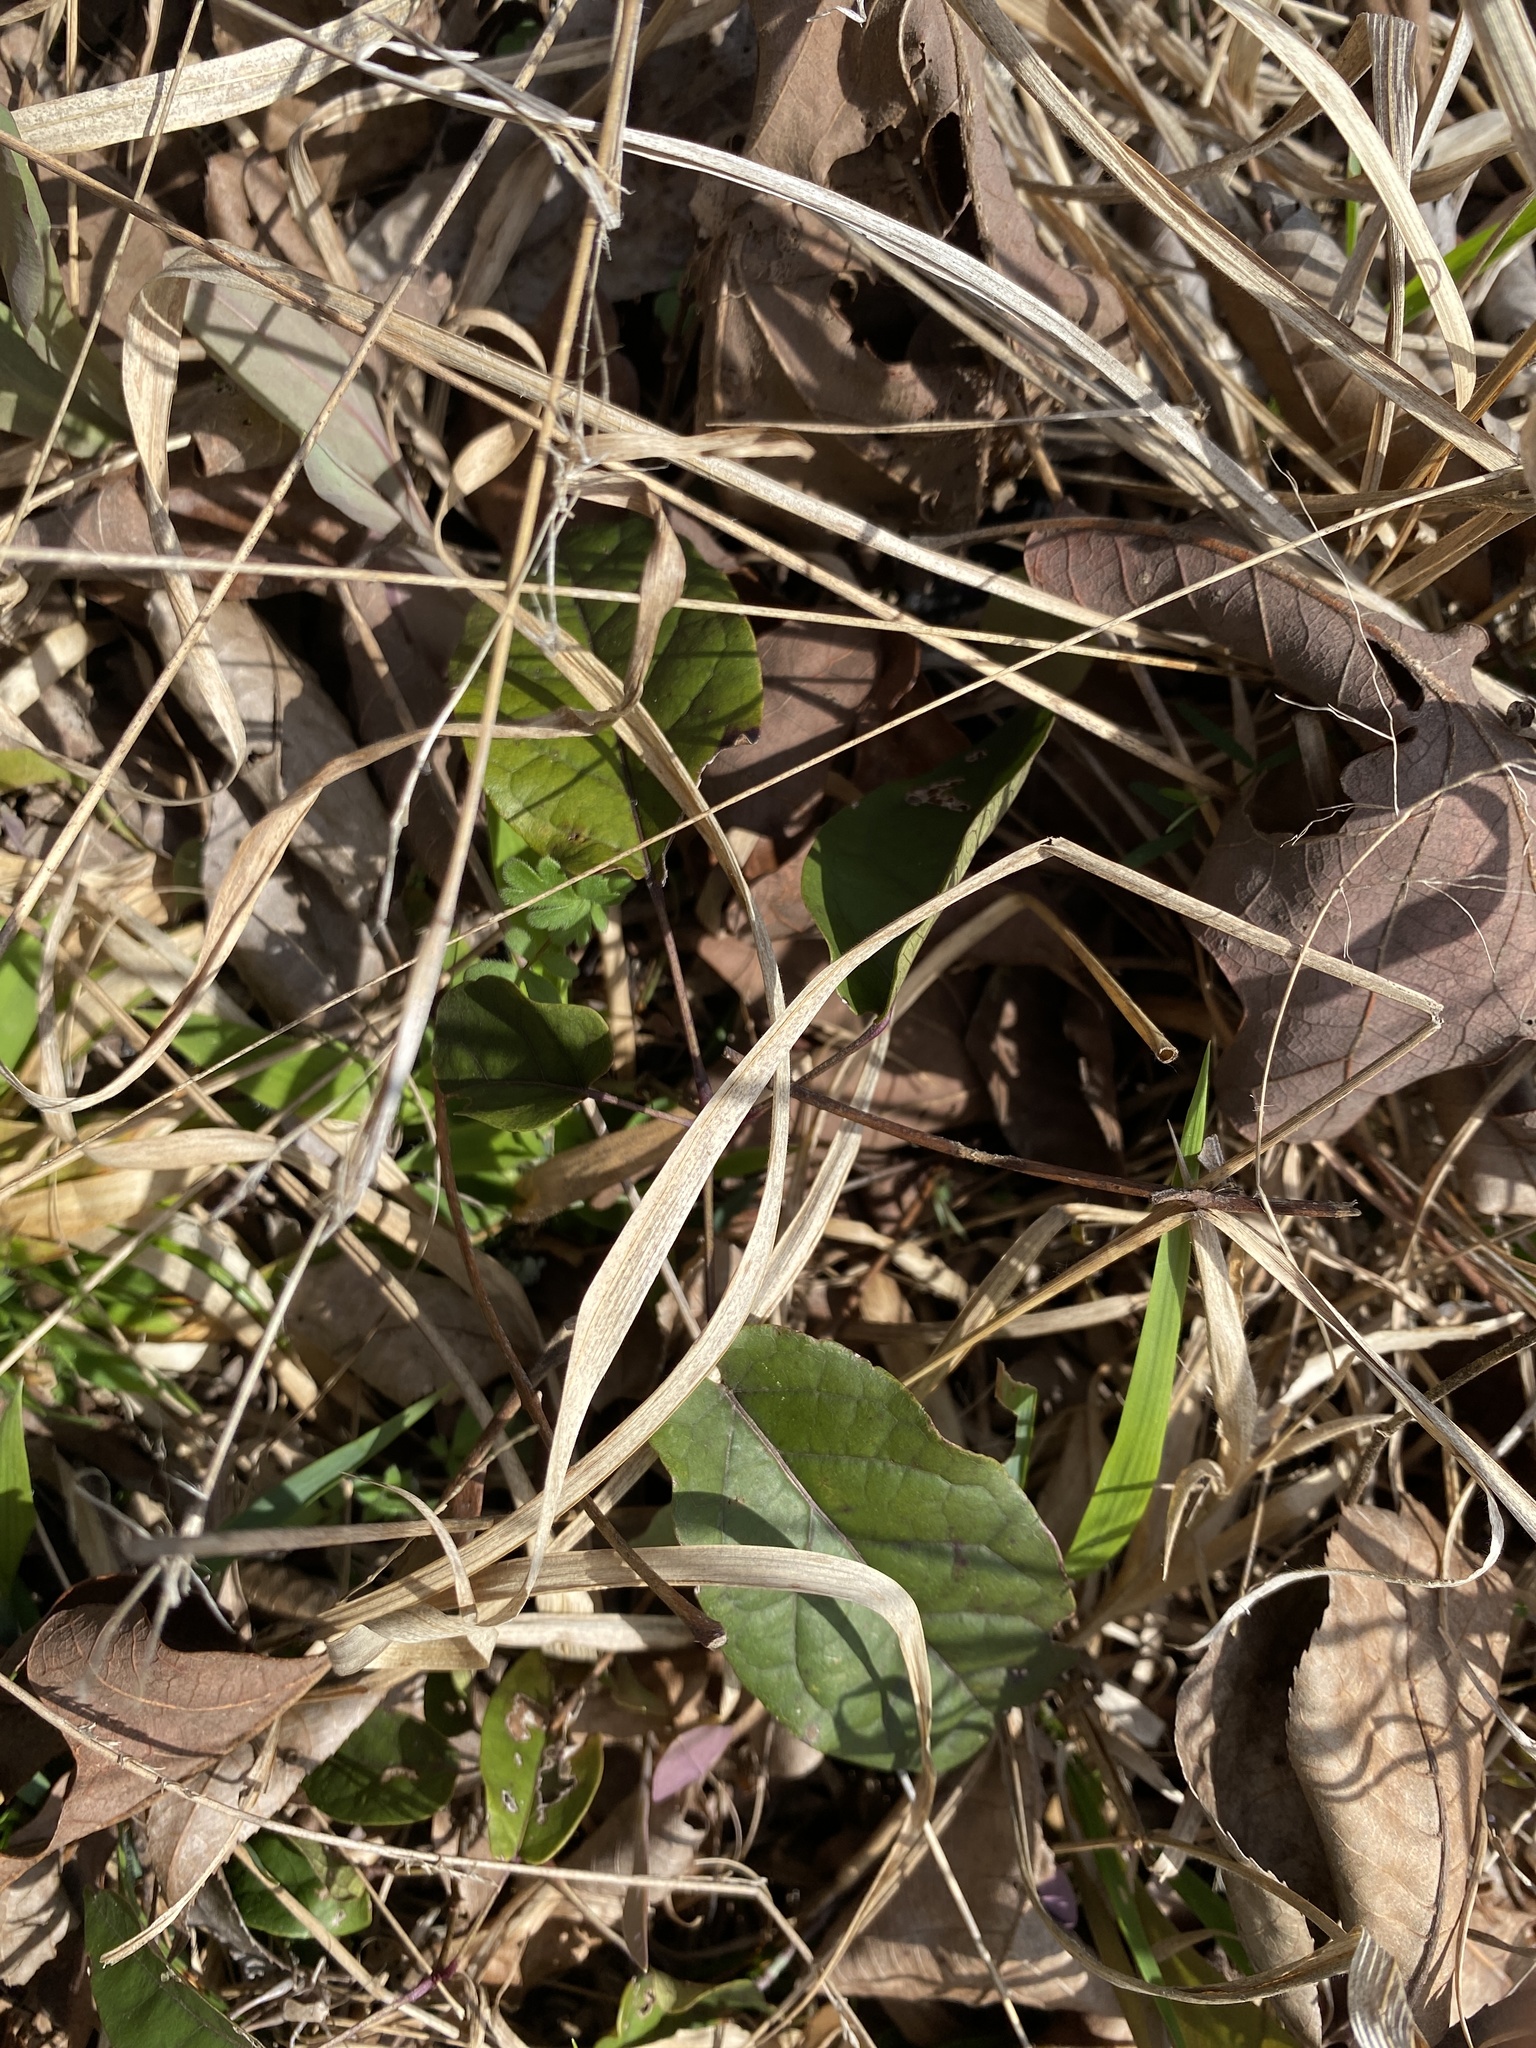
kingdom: Plantae
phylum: Tracheophyta
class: Magnoliopsida
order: Lamiales
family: Bignoniaceae
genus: Bignonia
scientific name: Bignonia capreolata
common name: Crossvine
